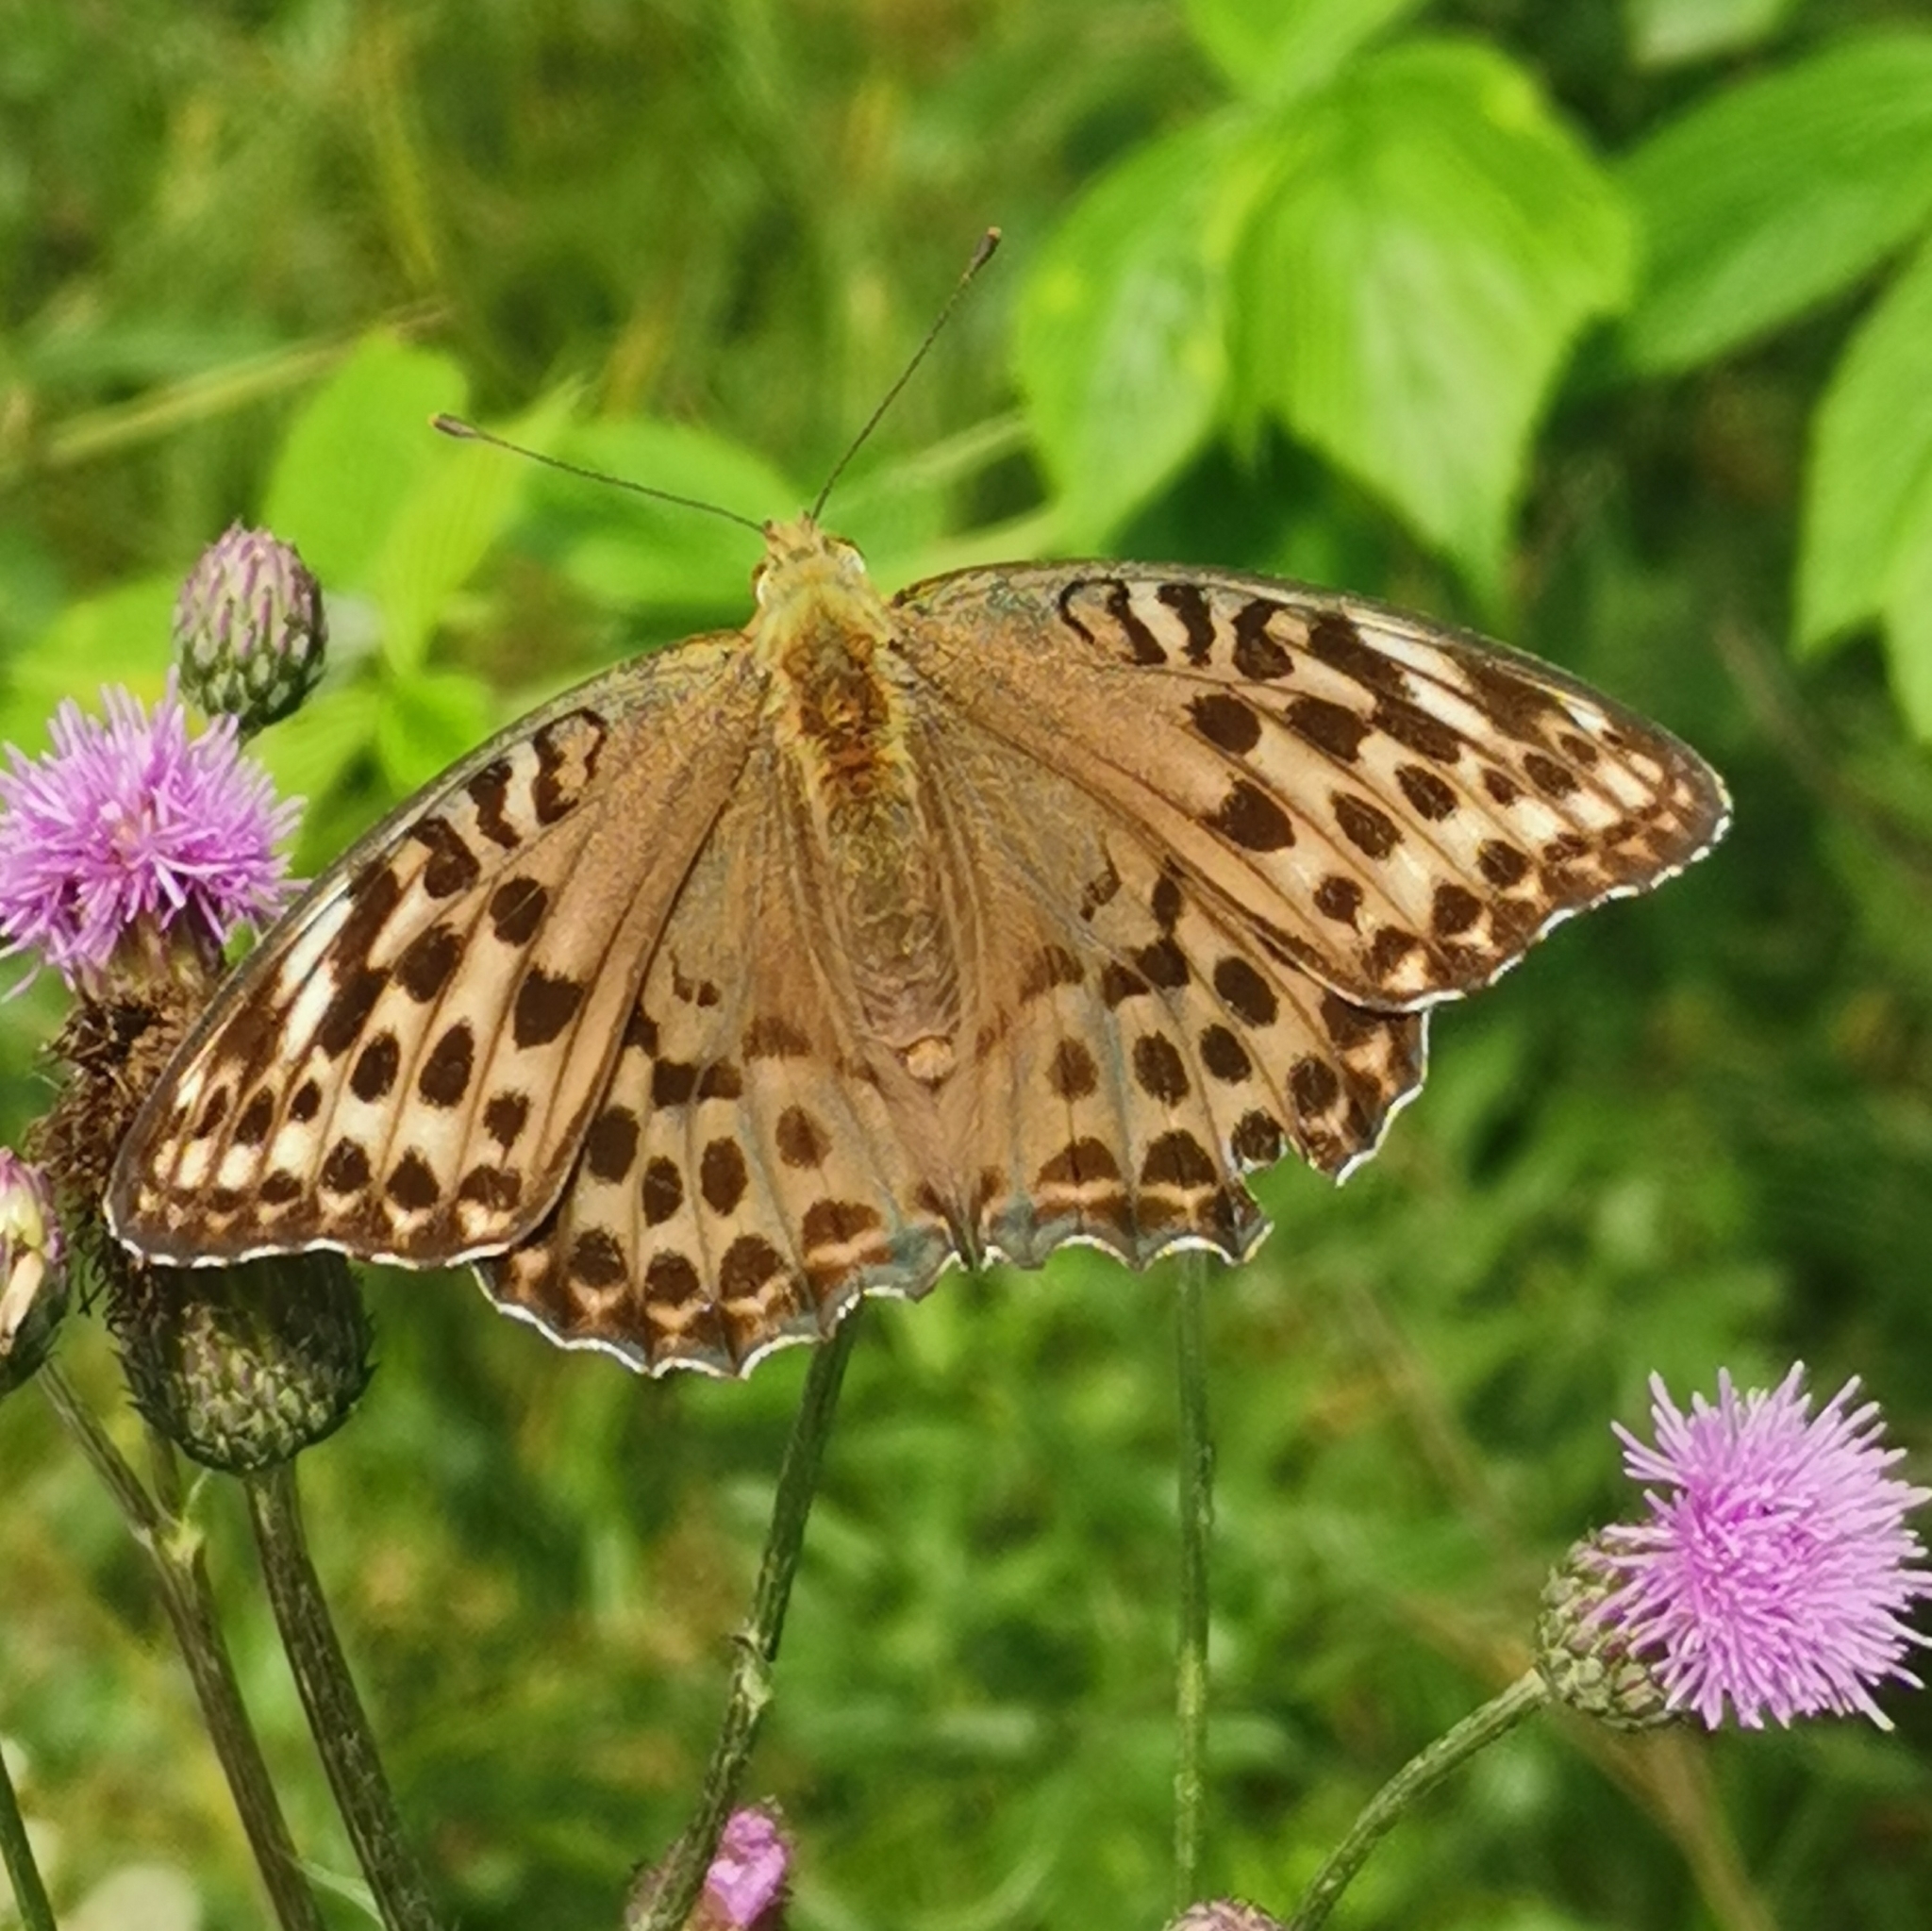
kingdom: Animalia
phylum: Arthropoda
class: Insecta
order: Lepidoptera
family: Nymphalidae
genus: Argynnis
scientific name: Argynnis paphia
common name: Silver-washed fritillary
